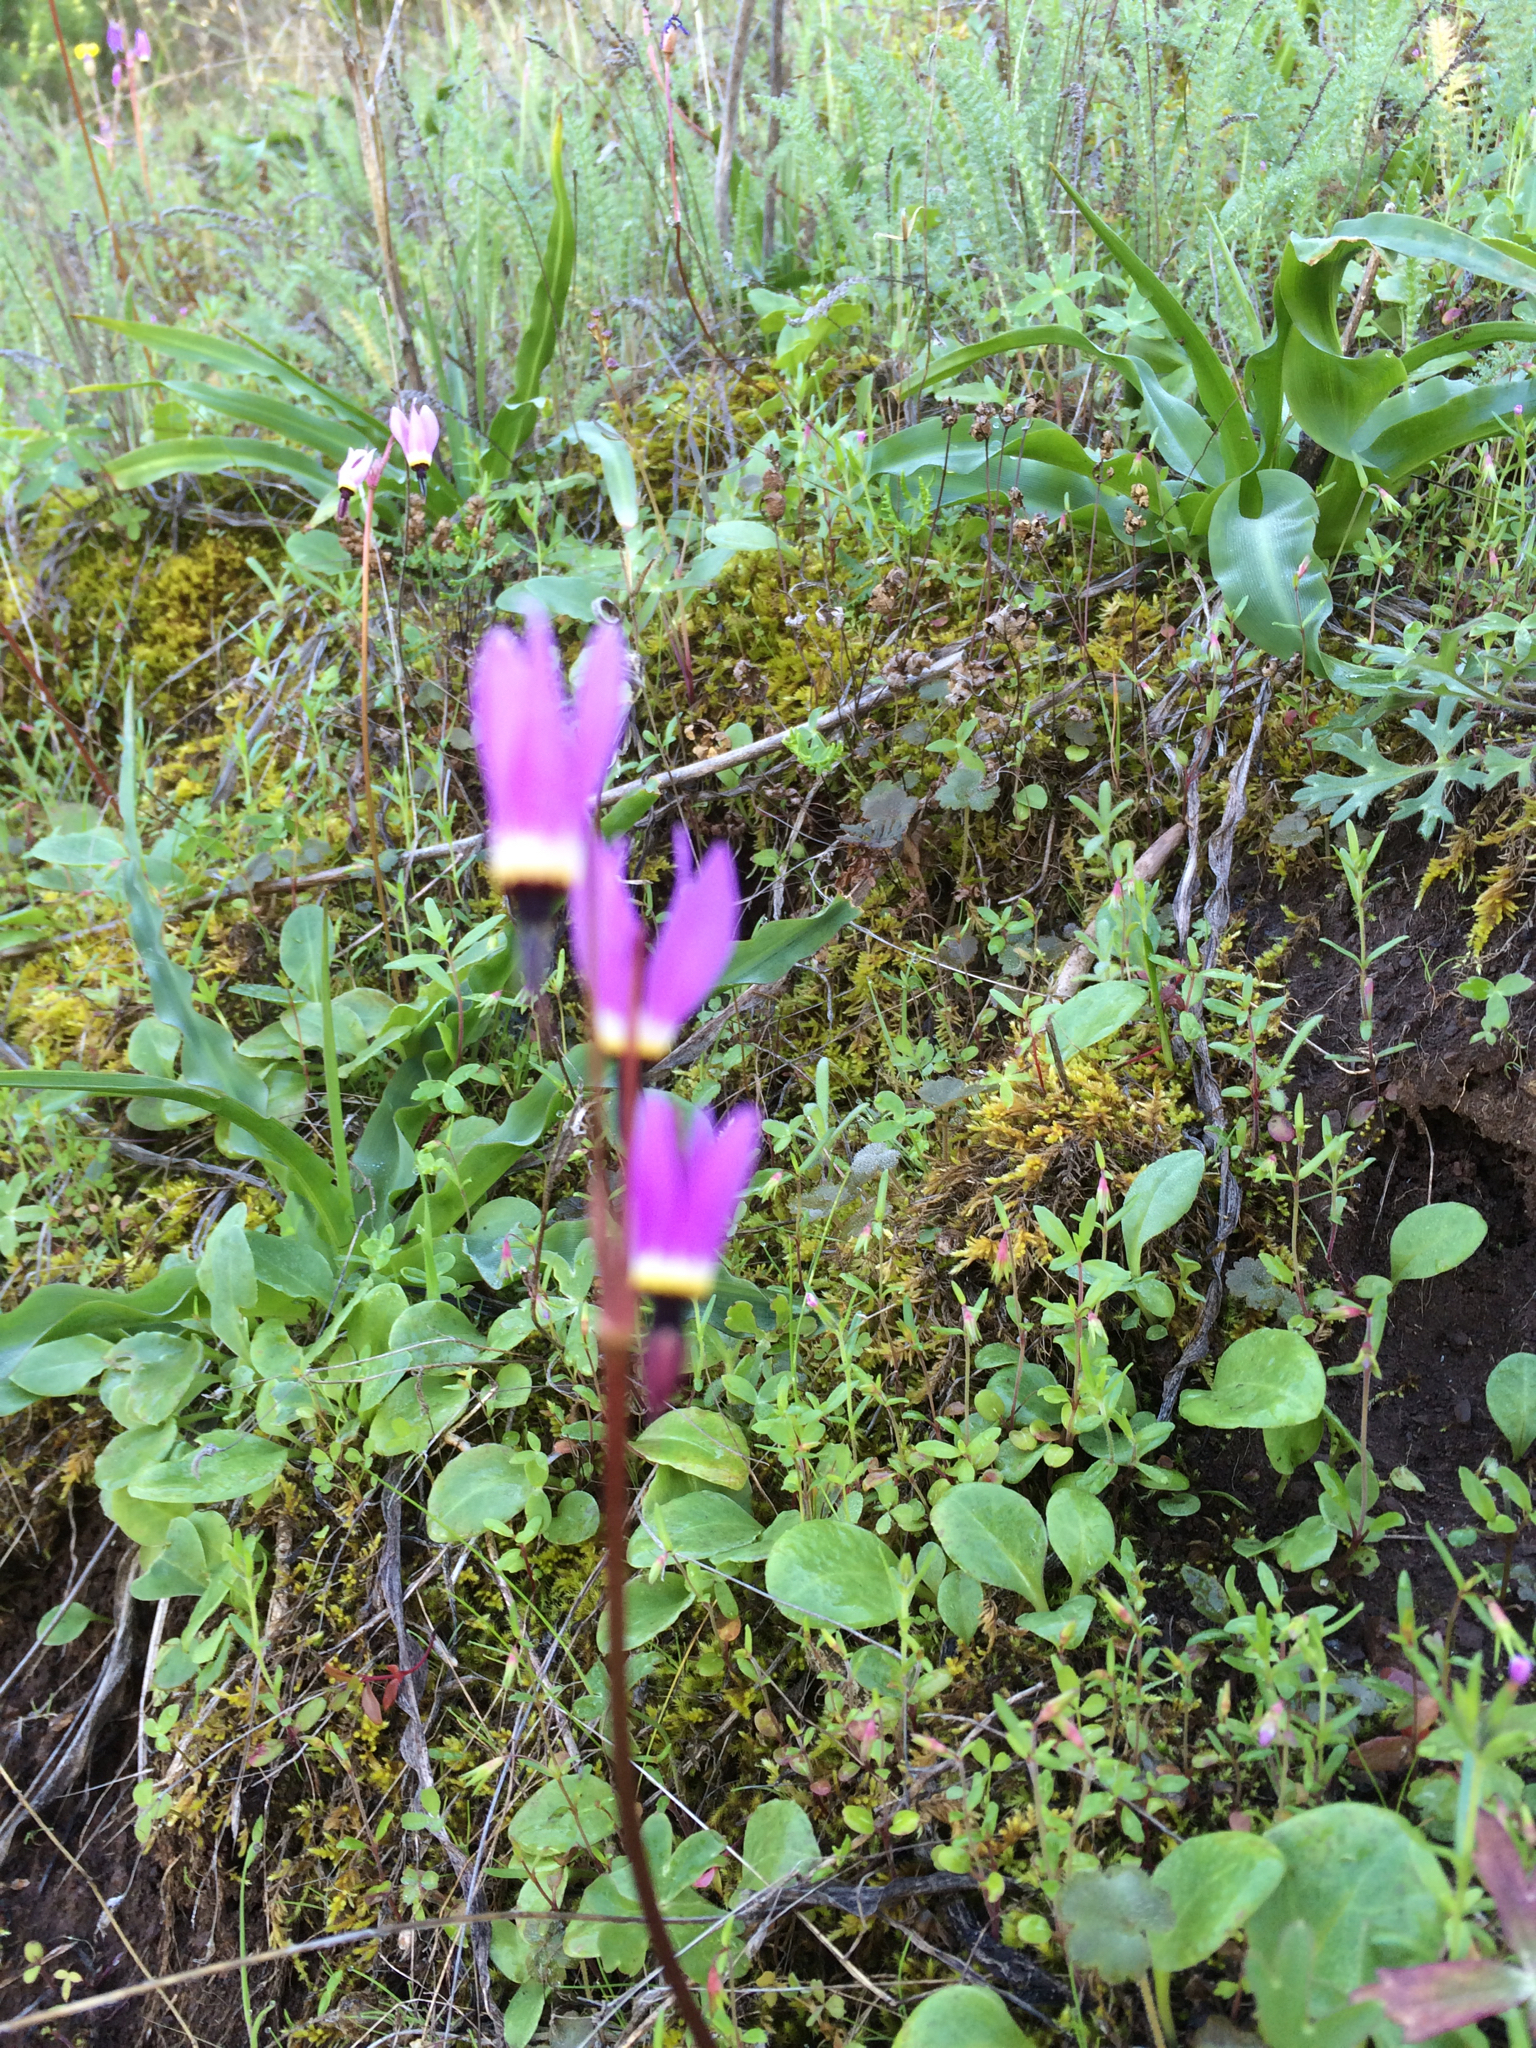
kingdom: Plantae
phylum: Tracheophyta
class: Magnoliopsida
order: Ericales
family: Primulaceae
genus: Dodecatheon
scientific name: Dodecatheon hendersonii
